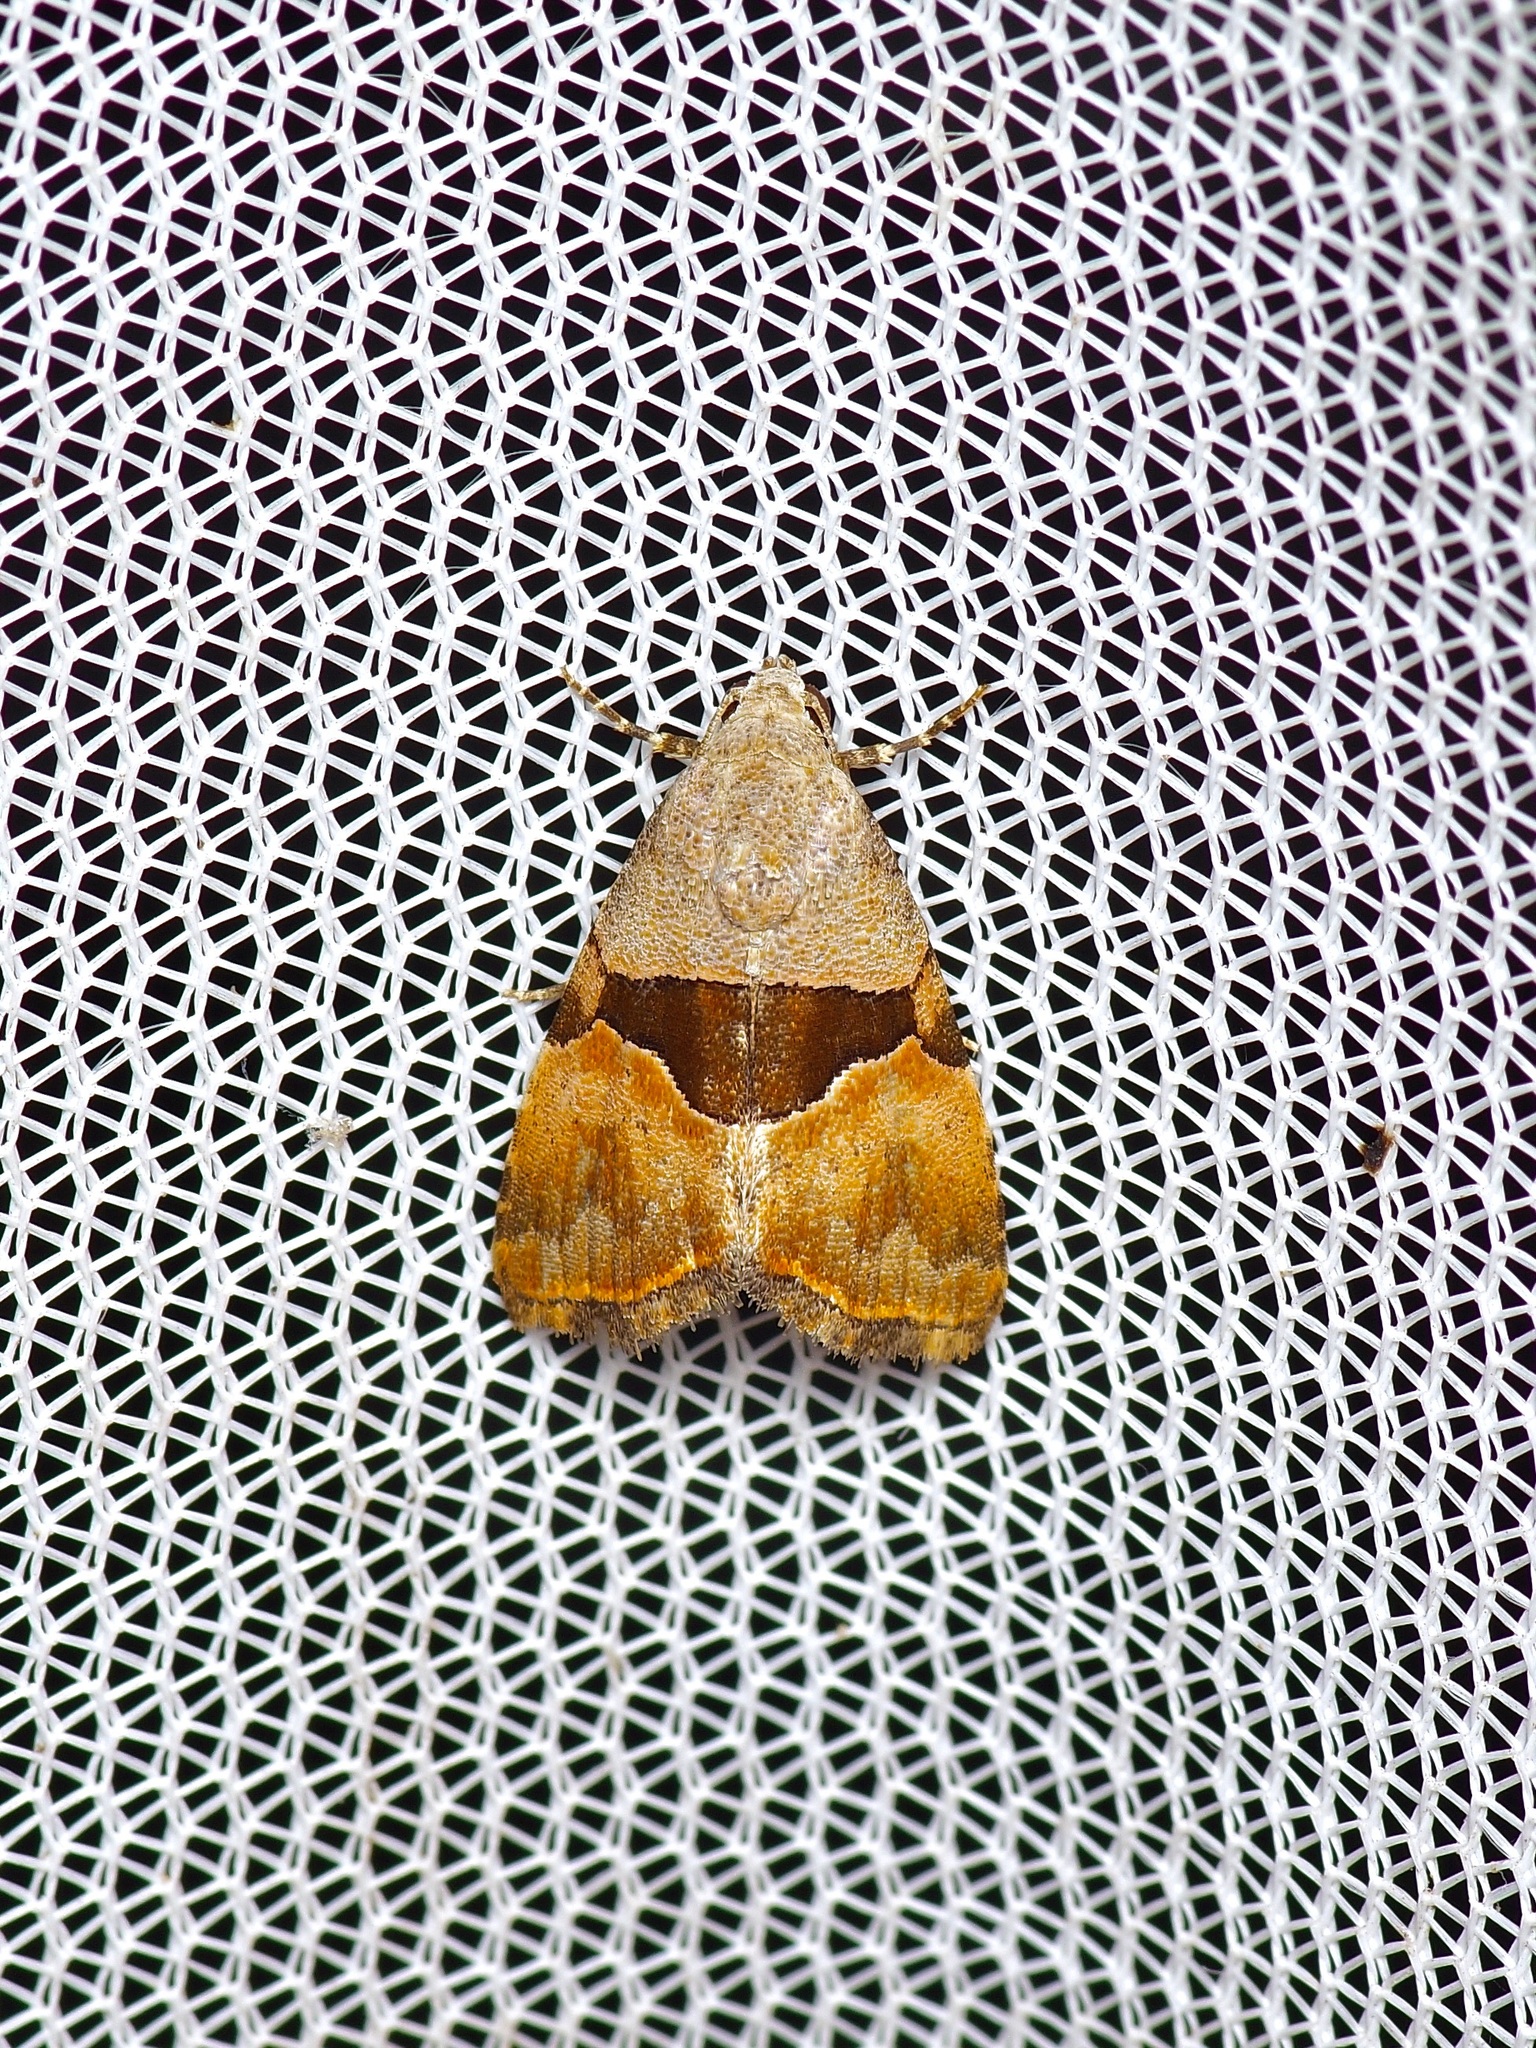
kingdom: Animalia
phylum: Arthropoda
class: Insecta
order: Lepidoptera
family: Noctuidae
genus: Cobubatha
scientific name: Cobubatha lixiva
